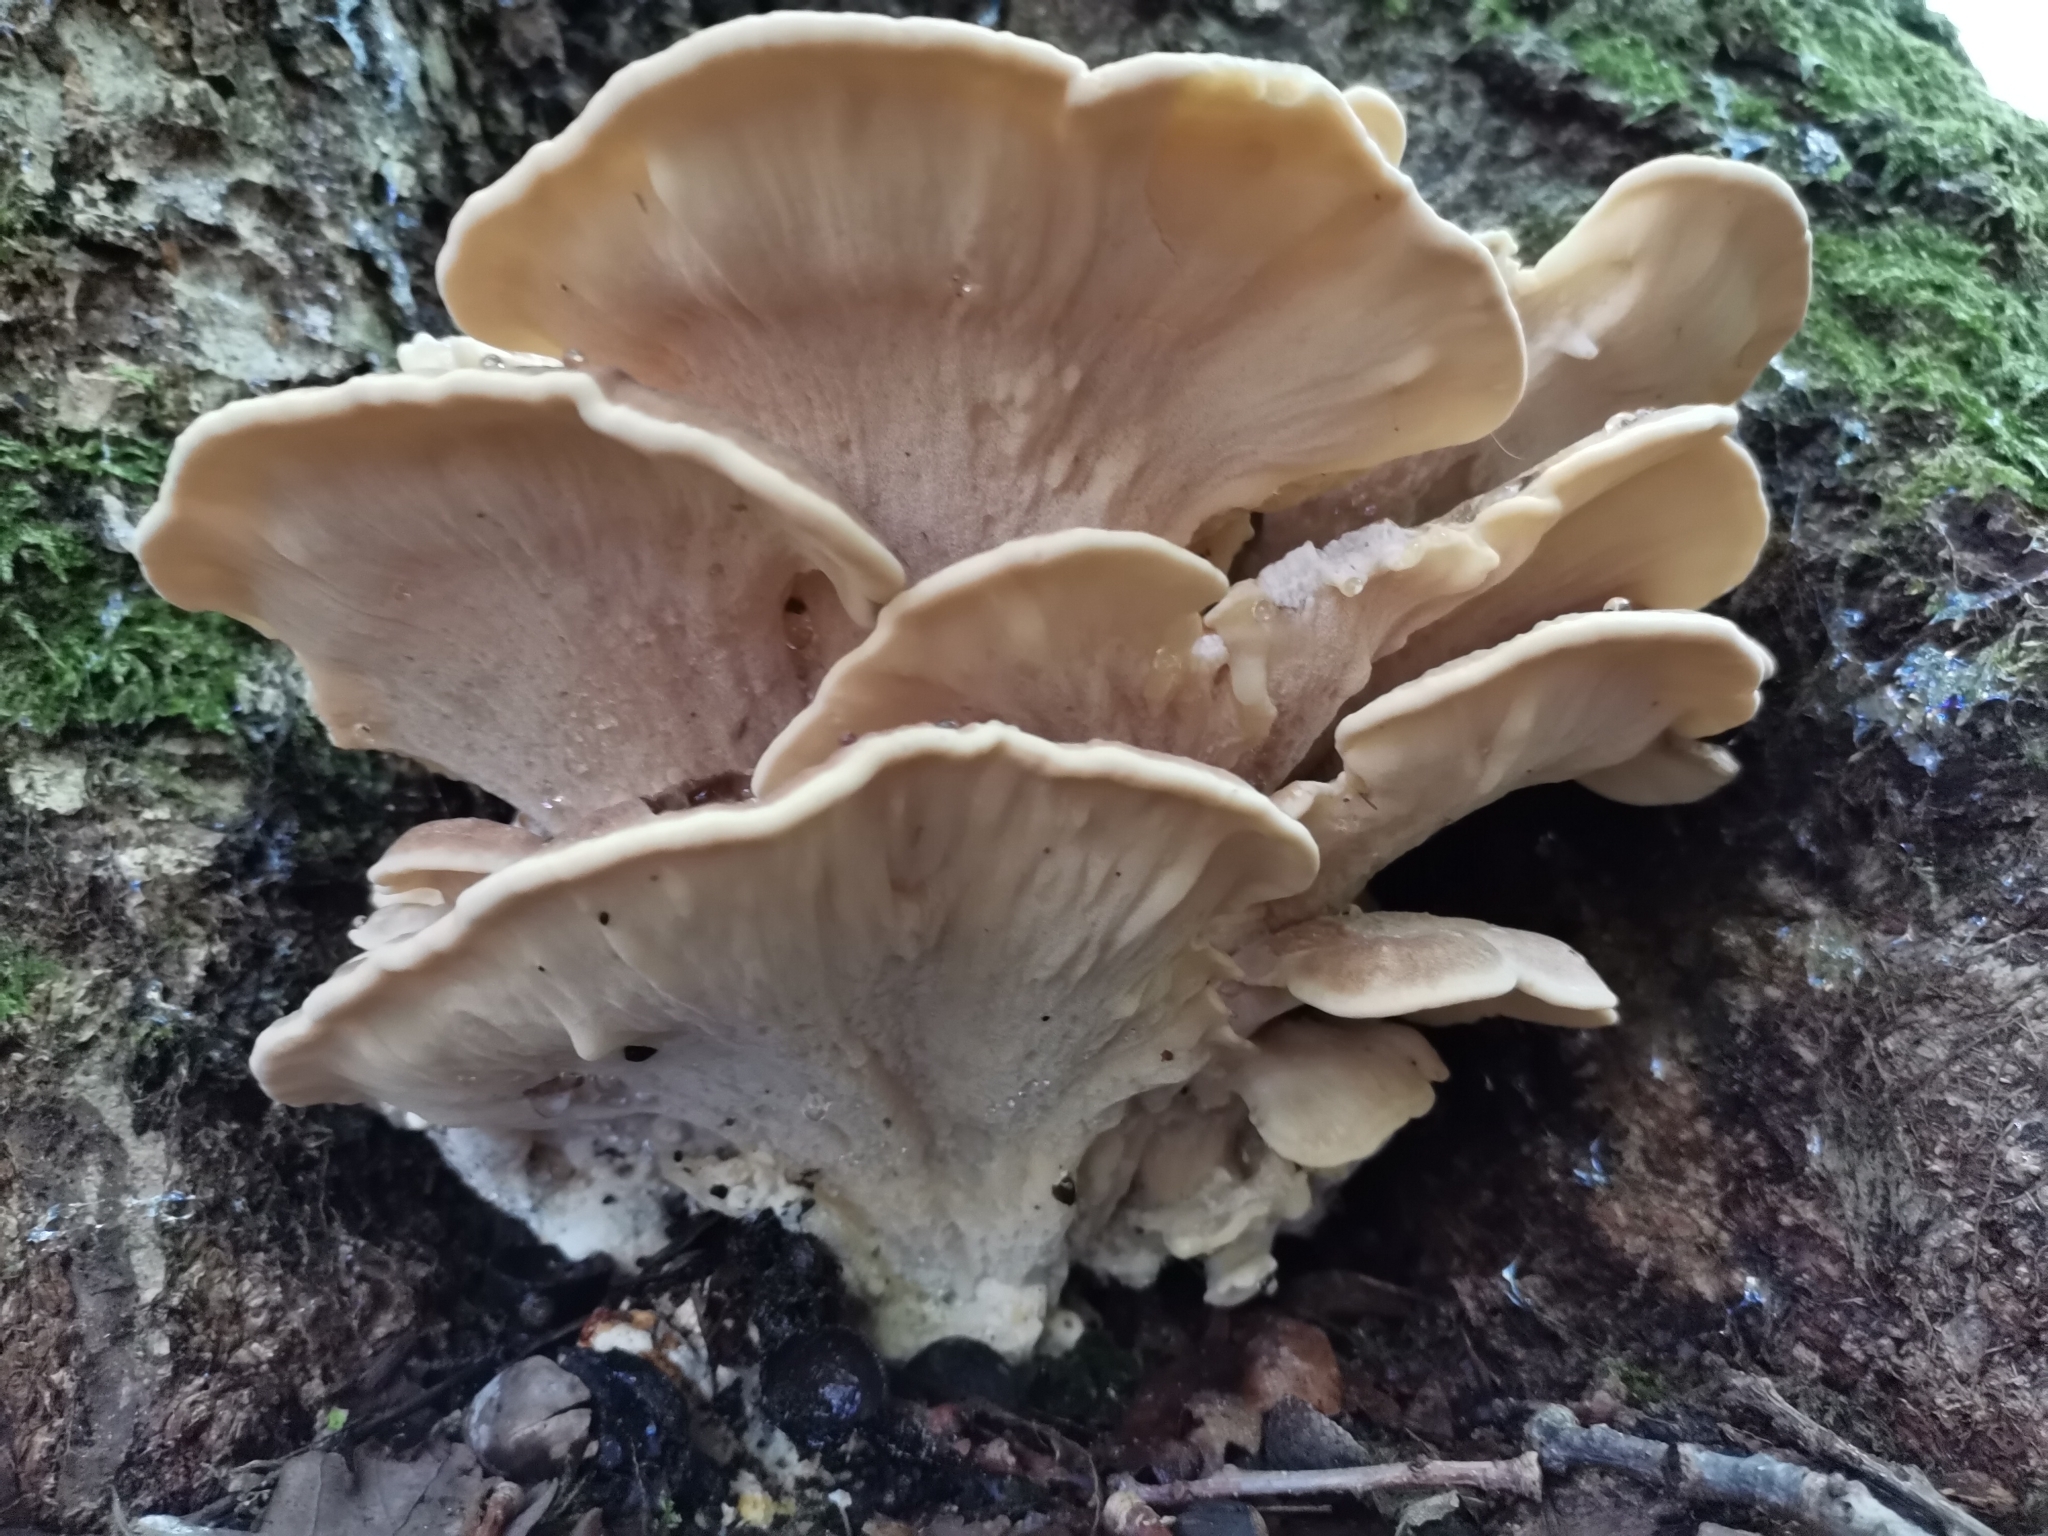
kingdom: Fungi
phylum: Basidiomycota
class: Agaricomycetes
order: Polyporales
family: Meripilaceae
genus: Meripilus
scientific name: Meripilus giganteus
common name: Giant polypore
